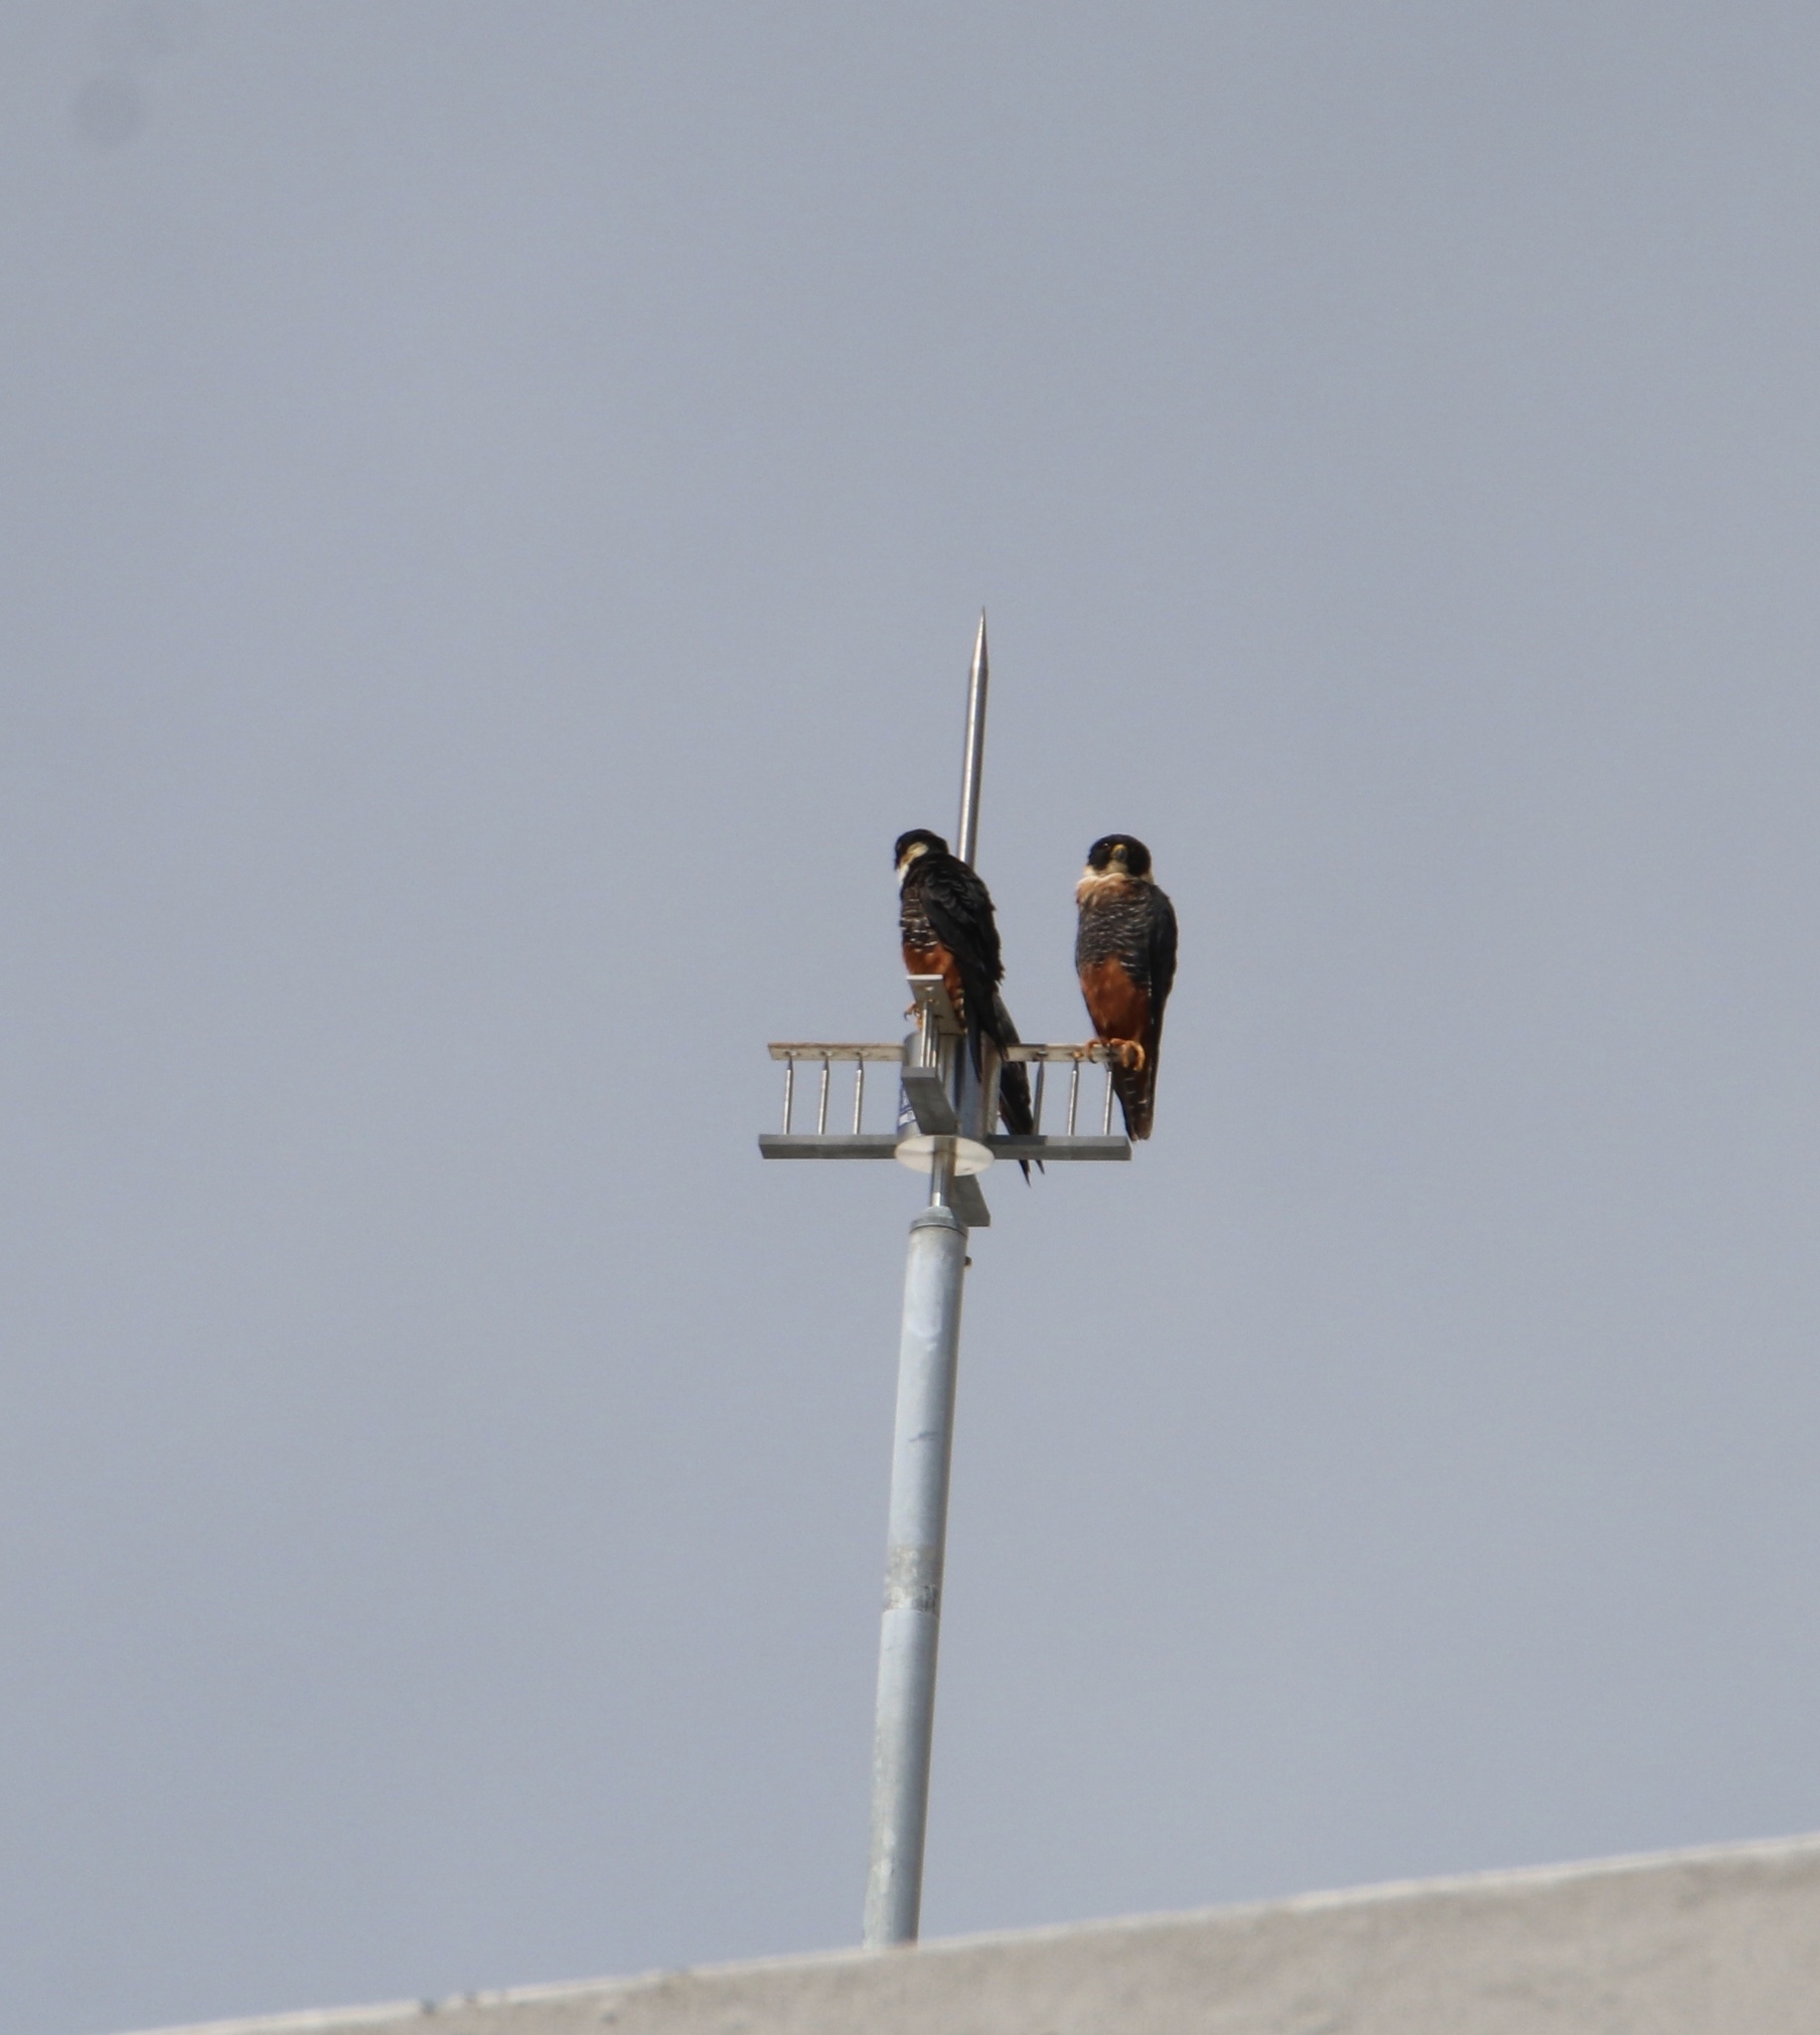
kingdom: Animalia
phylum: Chordata
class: Aves
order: Falconiformes
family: Falconidae
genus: Falco
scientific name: Falco rufigularis
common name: Bat falcon
